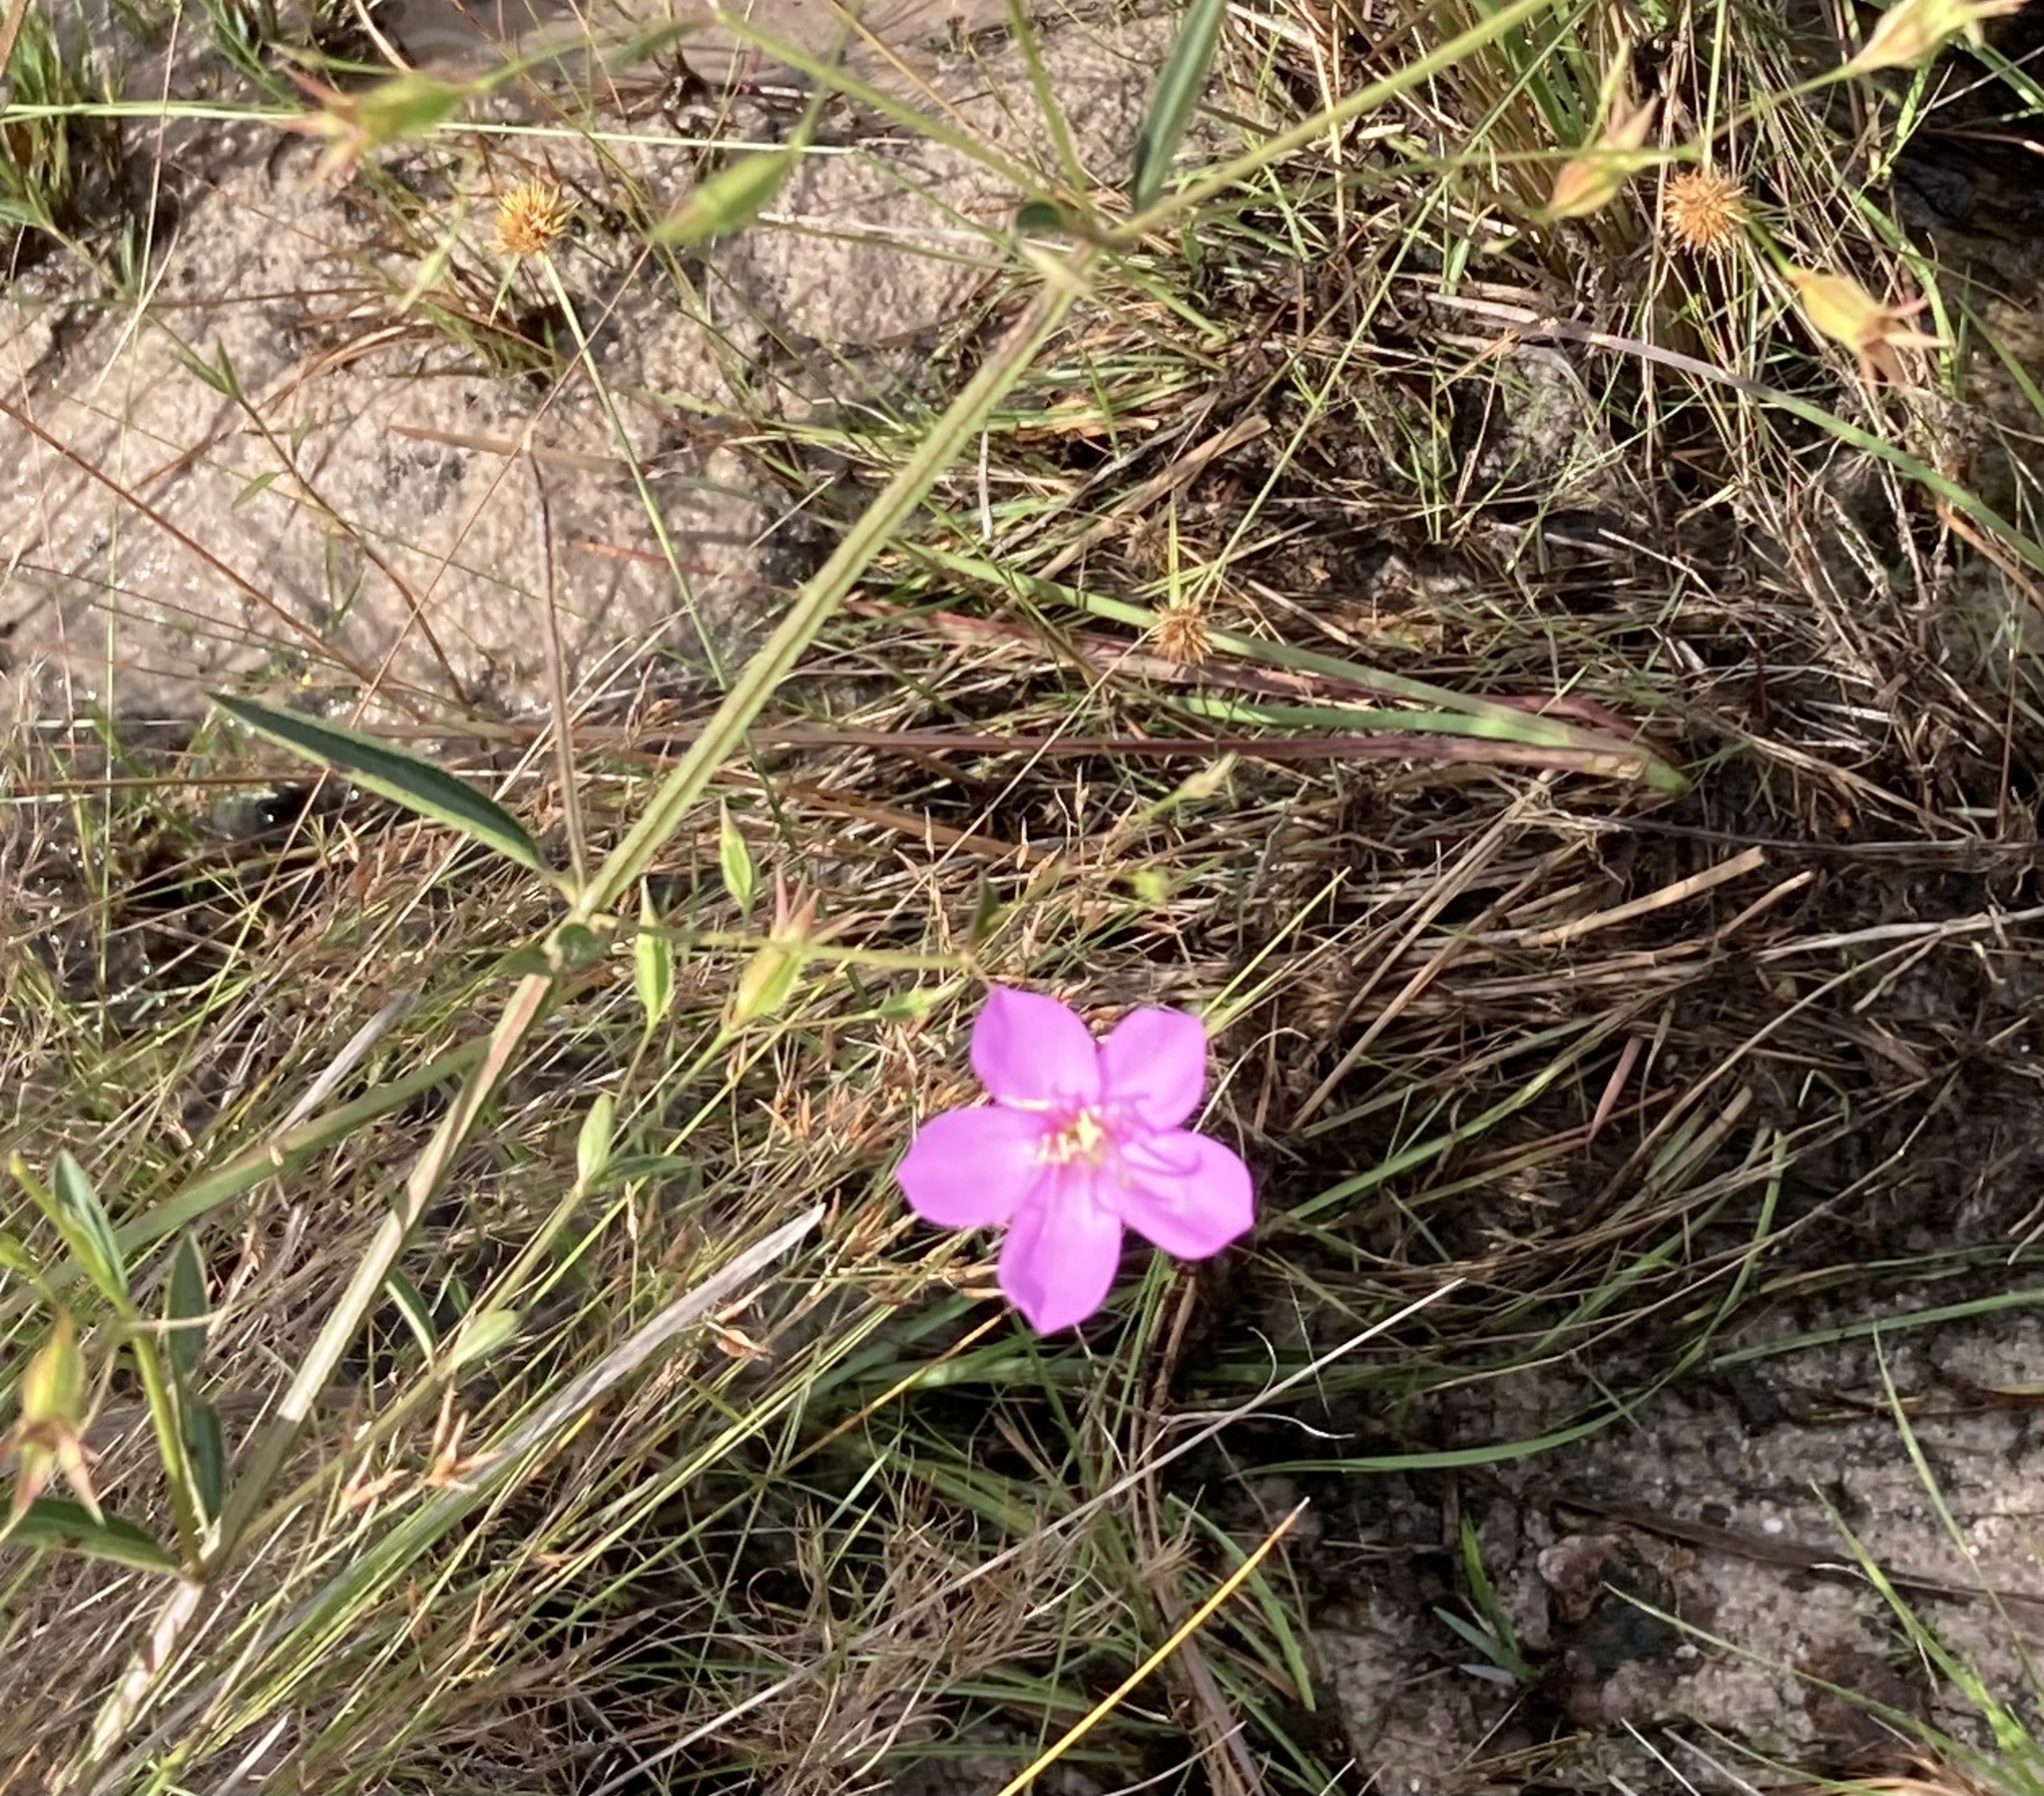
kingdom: Plantae
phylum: Tracheophyta
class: Magnoliopsida
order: Myrtales
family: Melastomataceae
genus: Pterogastra
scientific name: Pterogastra divaricata
